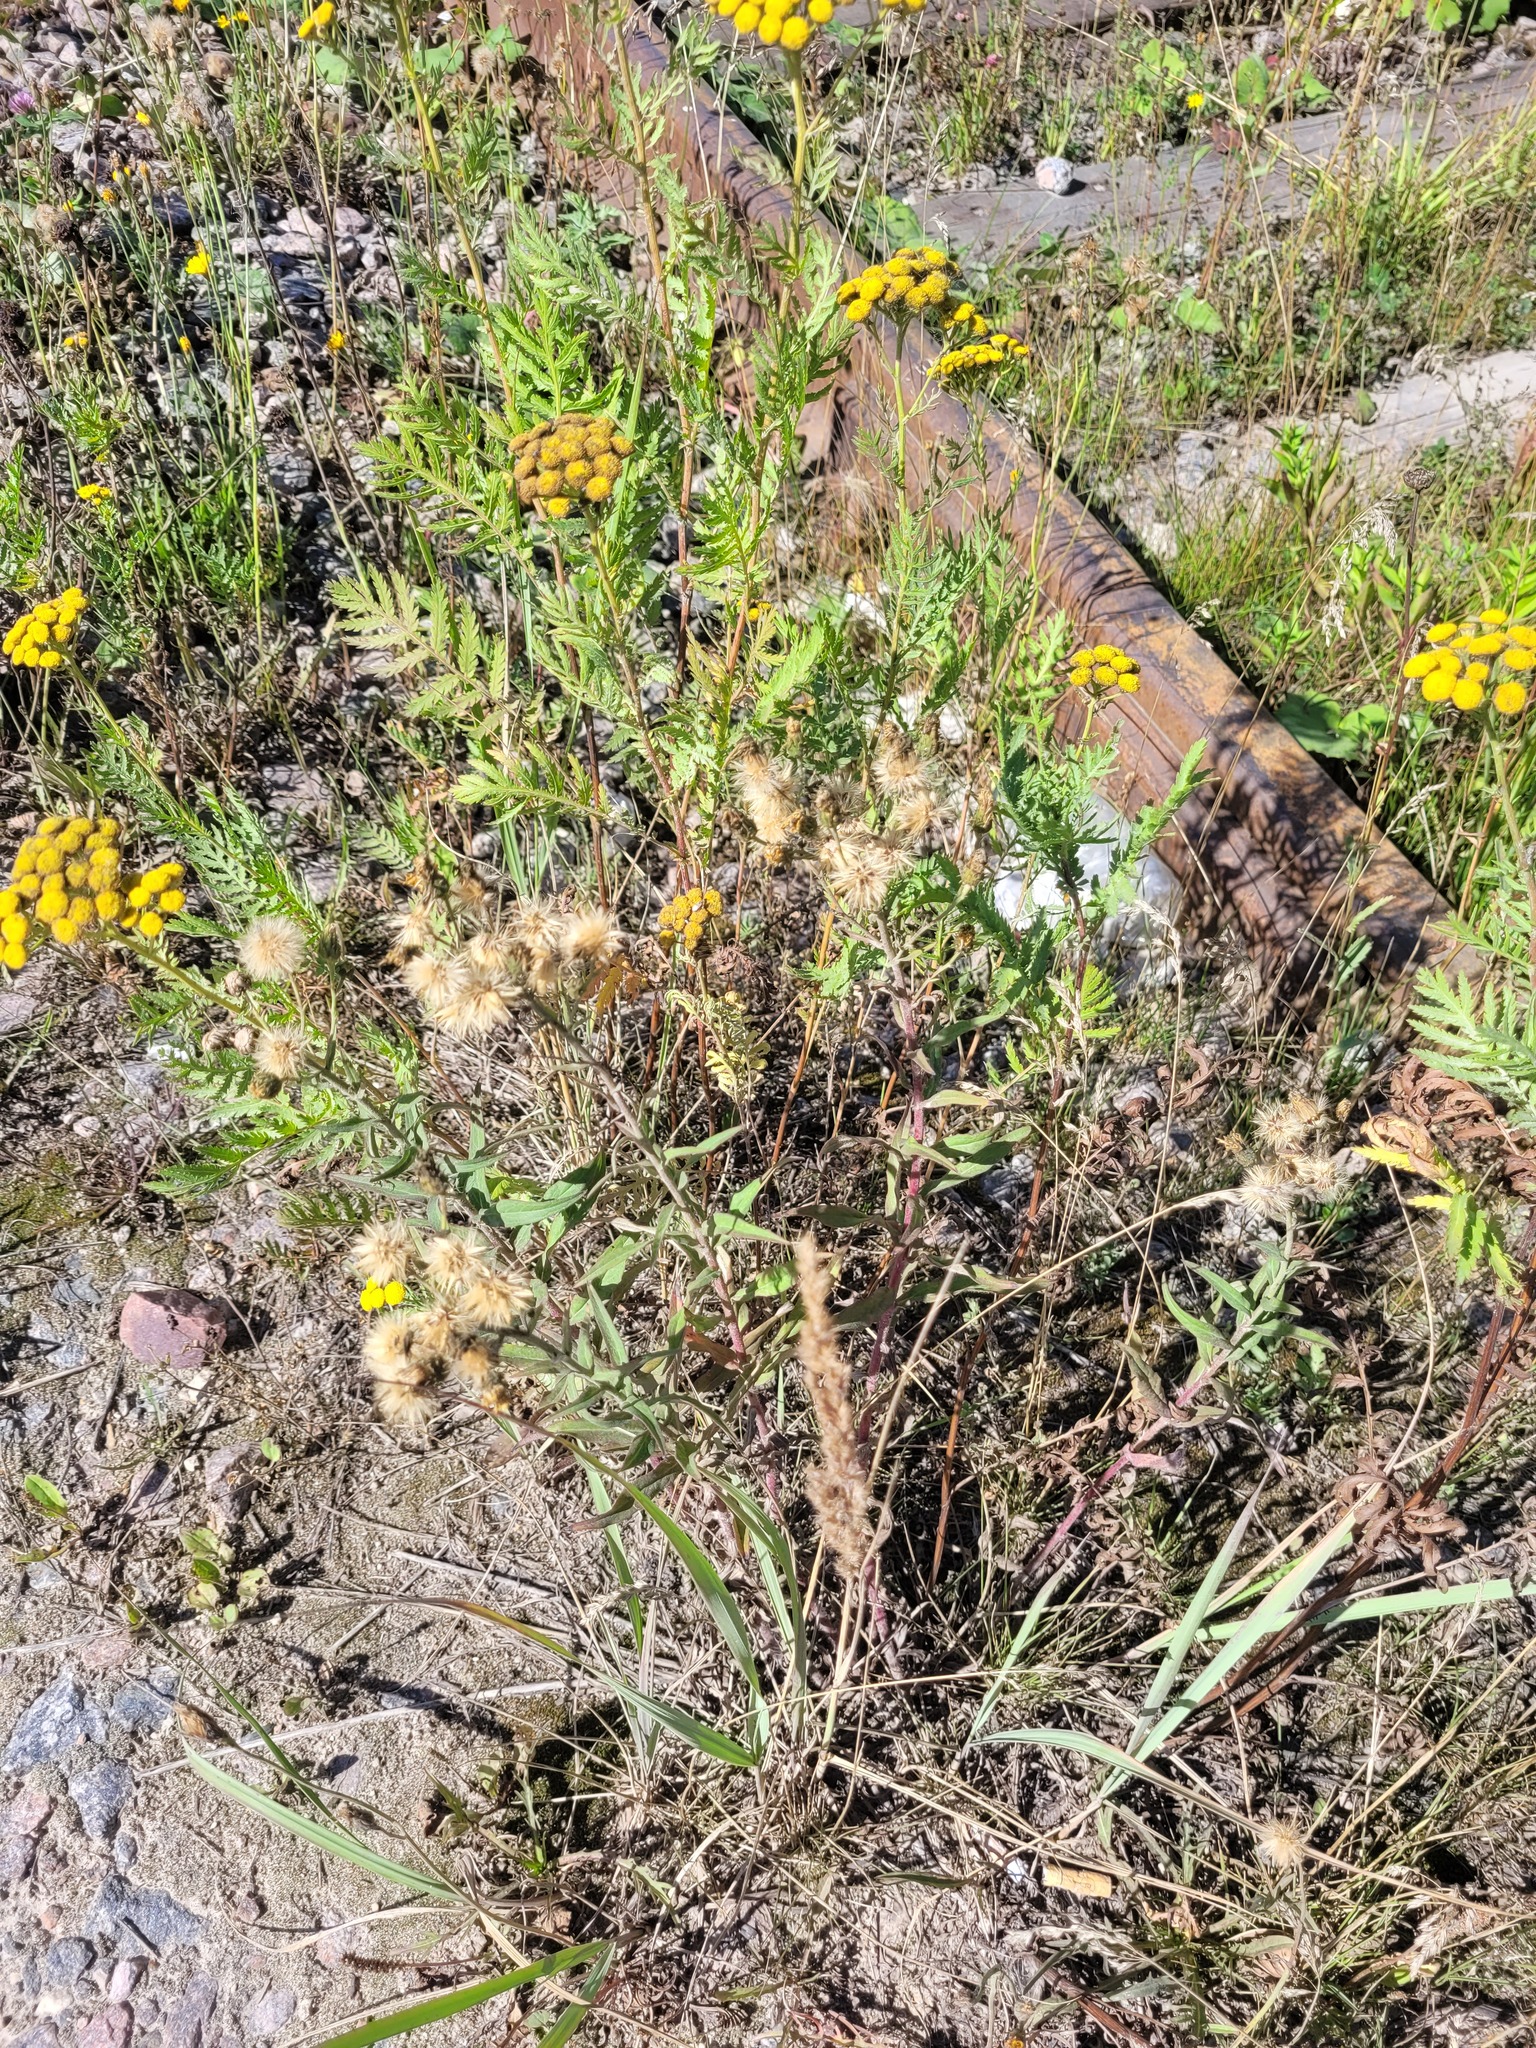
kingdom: Plantae
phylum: Tracheophyta
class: Magnoliopsida
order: Asterales
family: Asteraceae
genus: Hieracium
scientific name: Hieracium umbellatum
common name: Northern hawkweed
